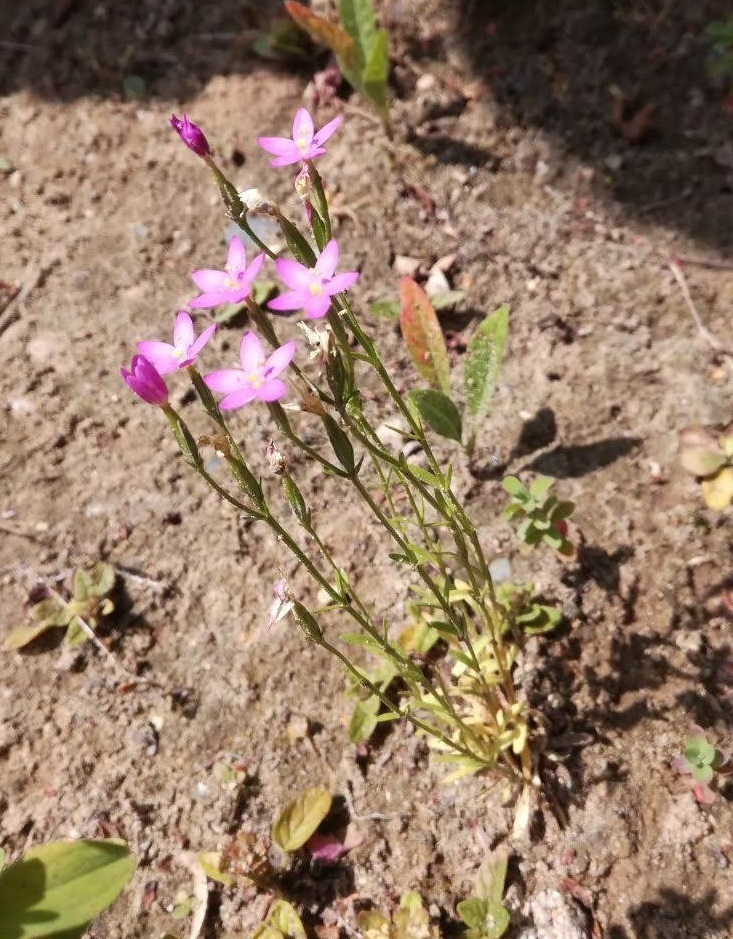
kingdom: Plantae
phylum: Tracheophyta
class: Magnoliopsida
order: Gentianales
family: Gentianaceae
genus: Centaurium
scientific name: Centaurium erythraea
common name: Common centaury
